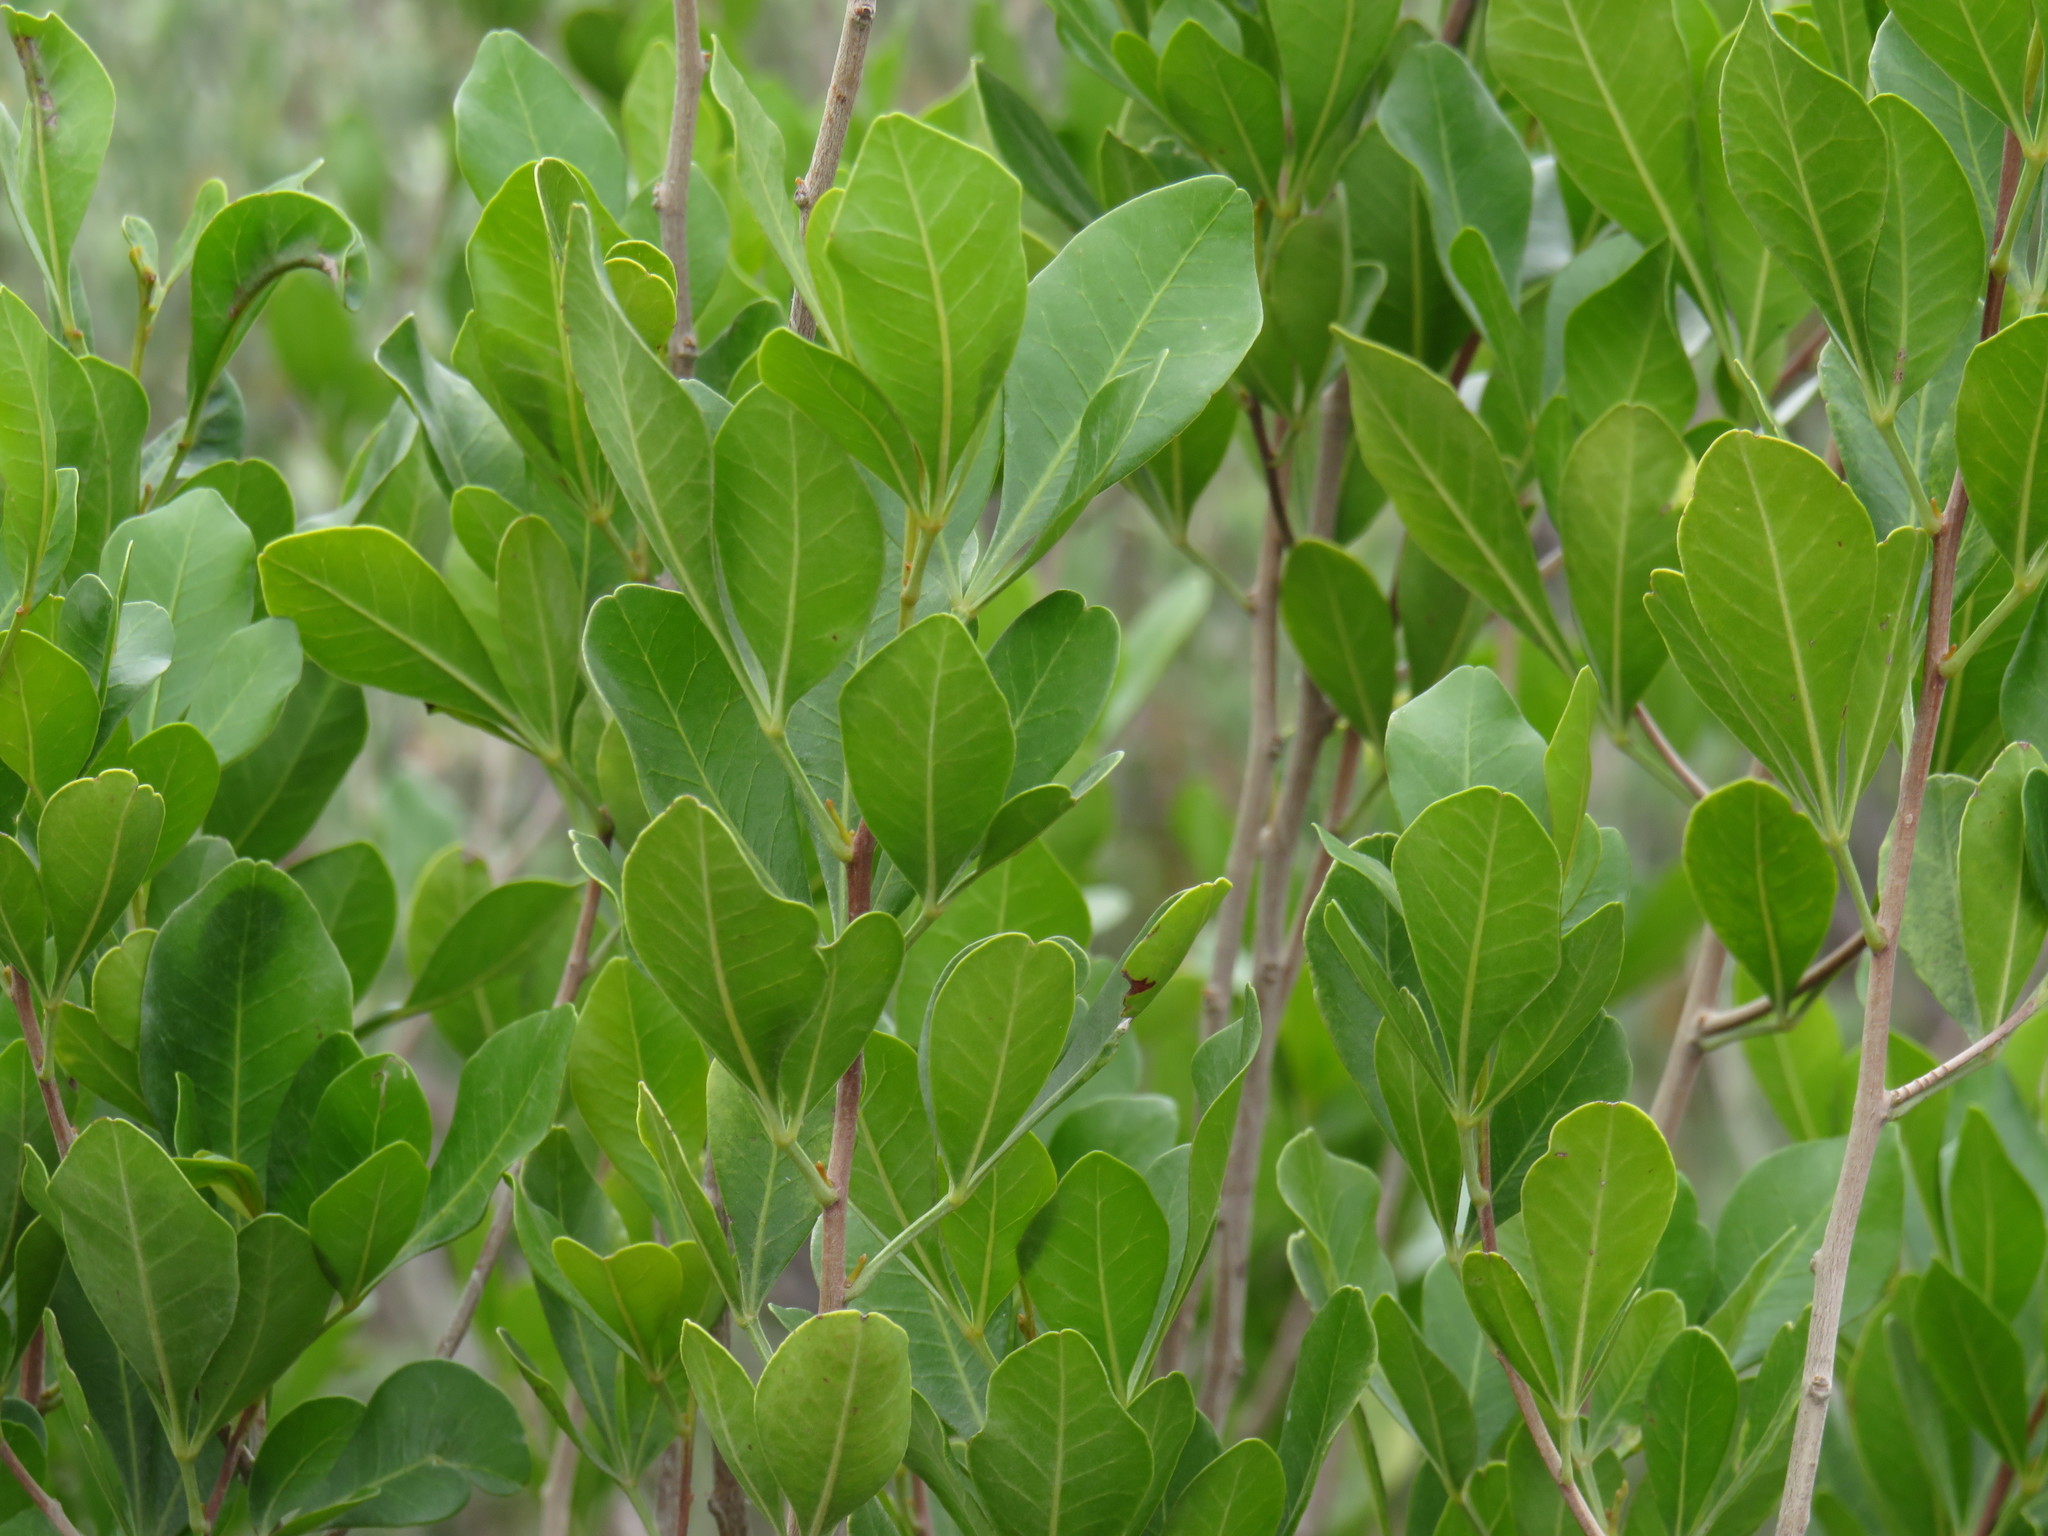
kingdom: Plantae
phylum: Tracheophyta
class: Magnoliopsida
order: Sapindales
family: Anacardiaceae
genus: Searsia
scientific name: Searsia lucida
